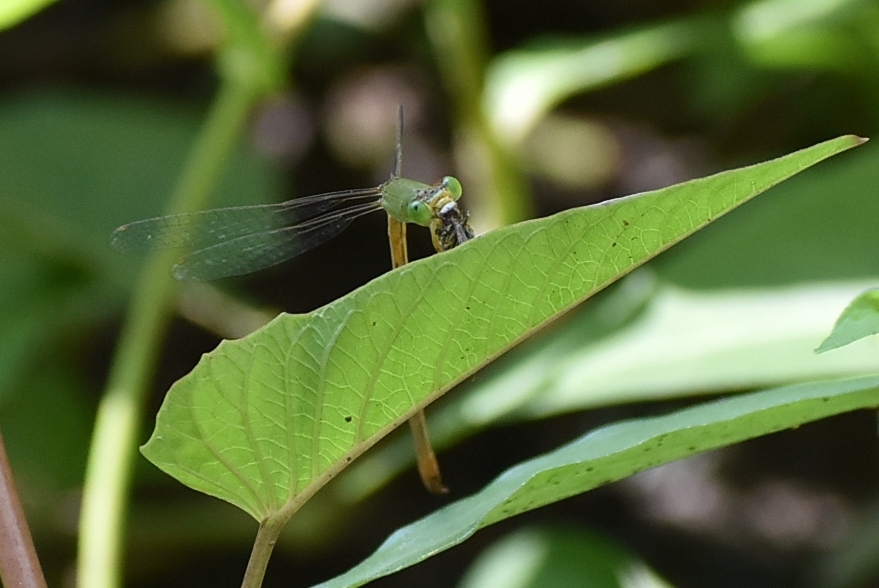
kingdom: Animalia
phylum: Arthropoda
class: Insecta
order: Odonata
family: Coenagrionidae
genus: Ceriagrion
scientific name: Ceriagrion coromandelianum
